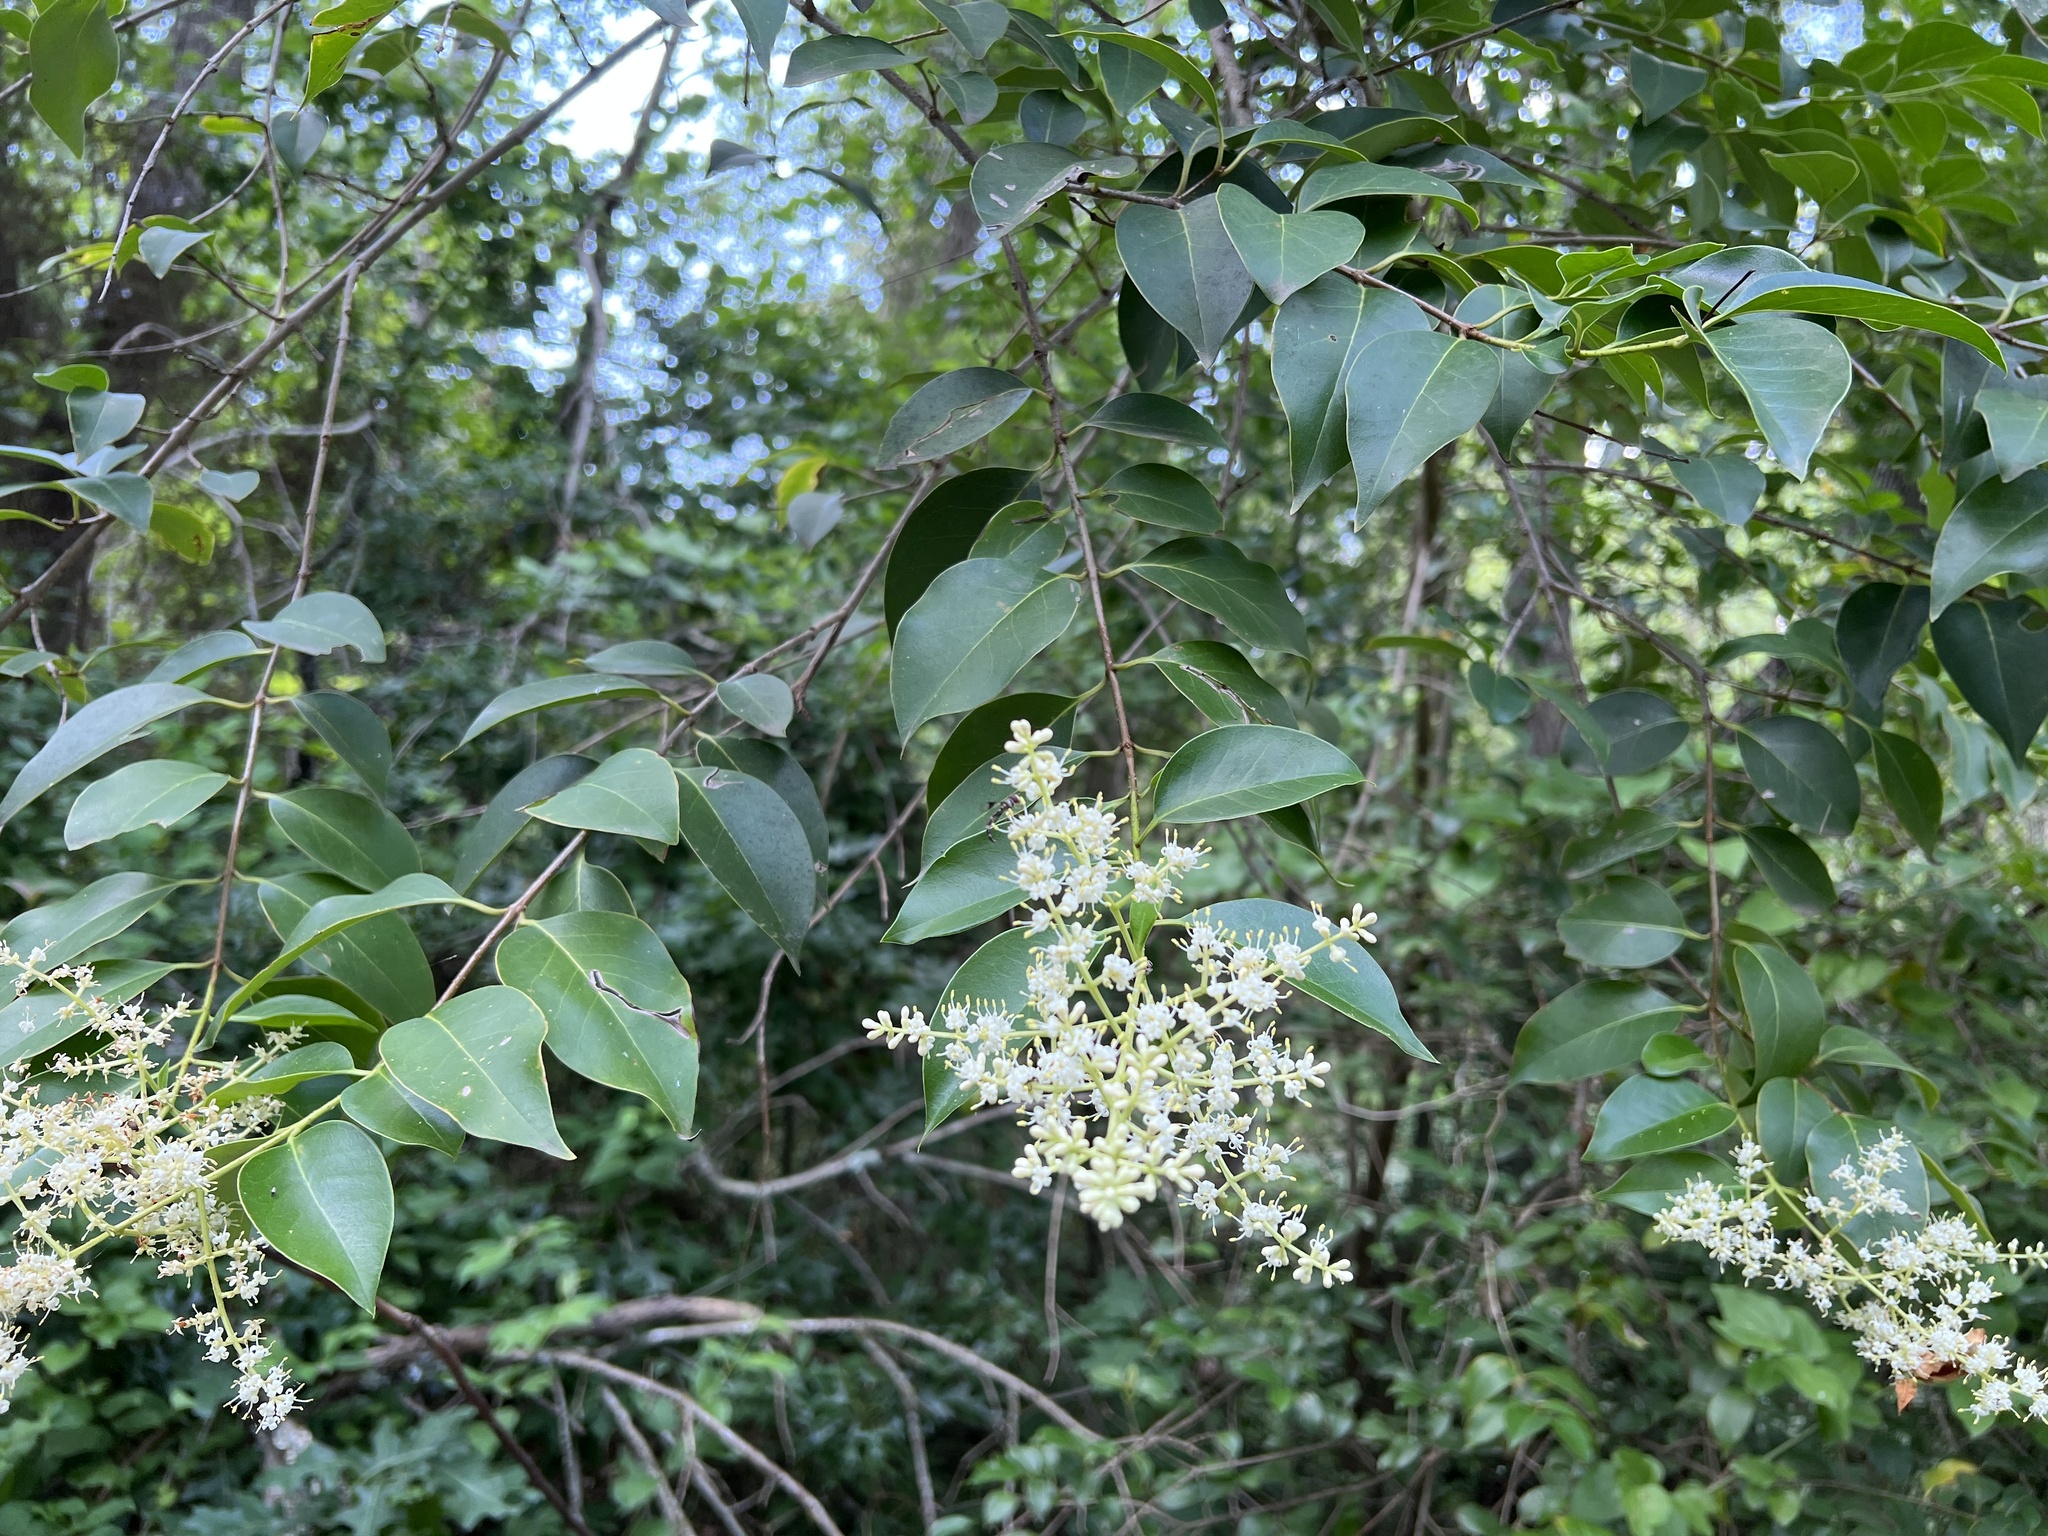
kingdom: Plantae
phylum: Tracheophyta
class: Magnoliopsida
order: Lamiales
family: Oleaceae
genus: Ligustrum
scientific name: Ligustrum lucidum
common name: Glossy privet
